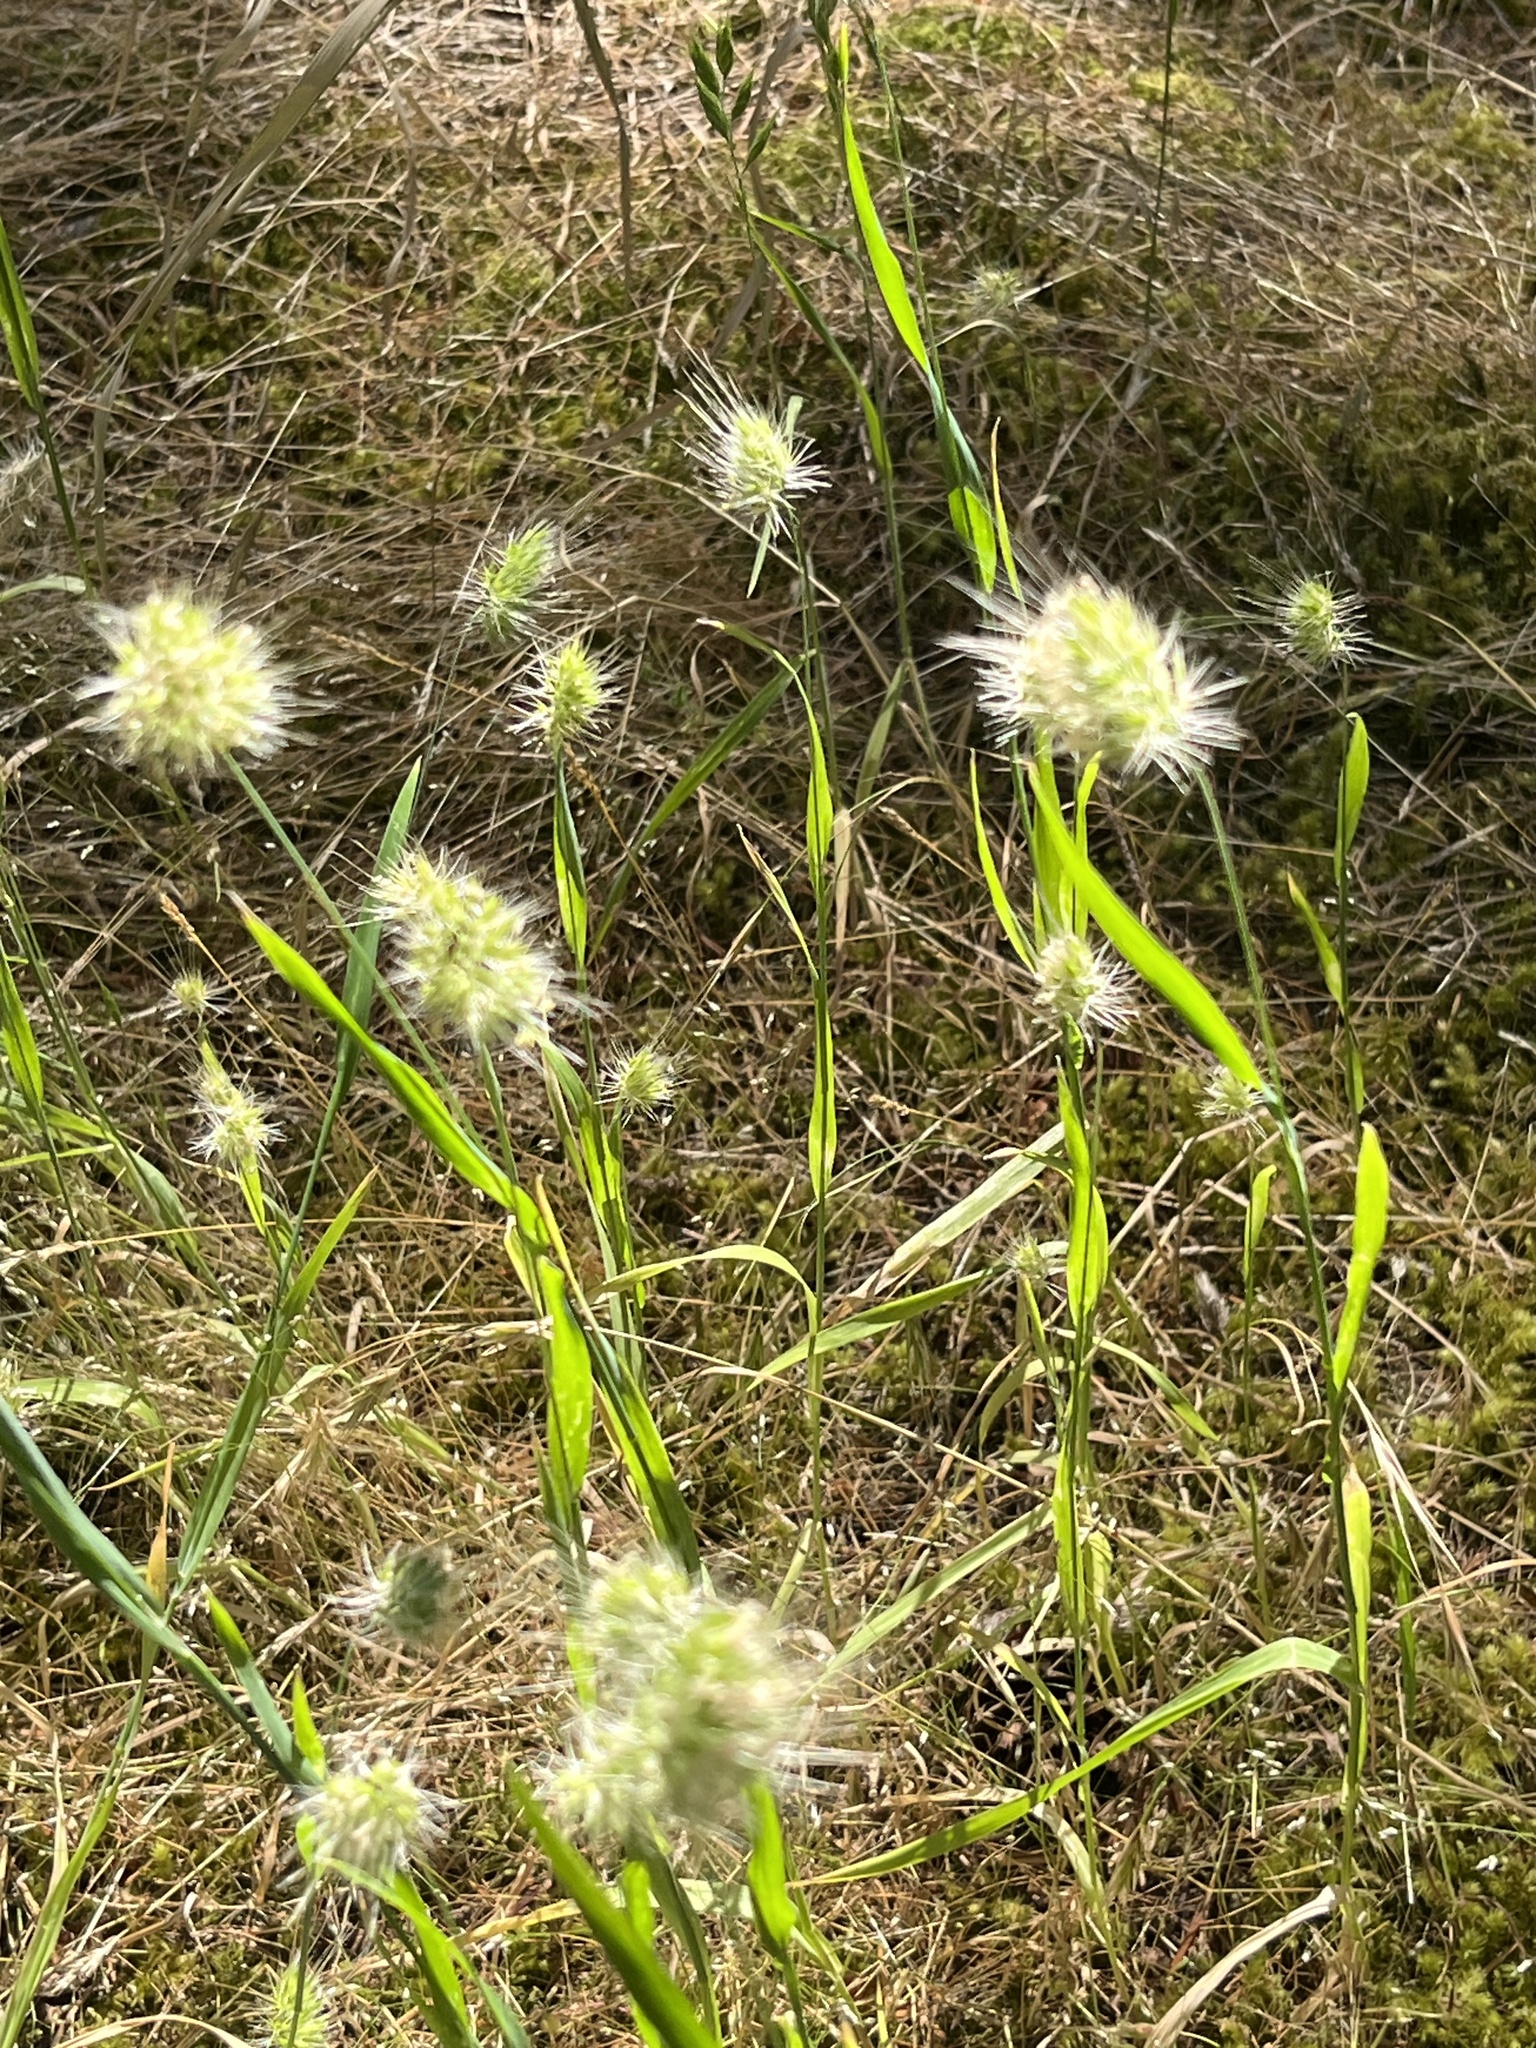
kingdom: Plantae
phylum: Tracheophyta
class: Liliopsida
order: Poales
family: Poaceae
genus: Cynosurus
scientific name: Cynosurus echinatus
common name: Rough dog's-tail
